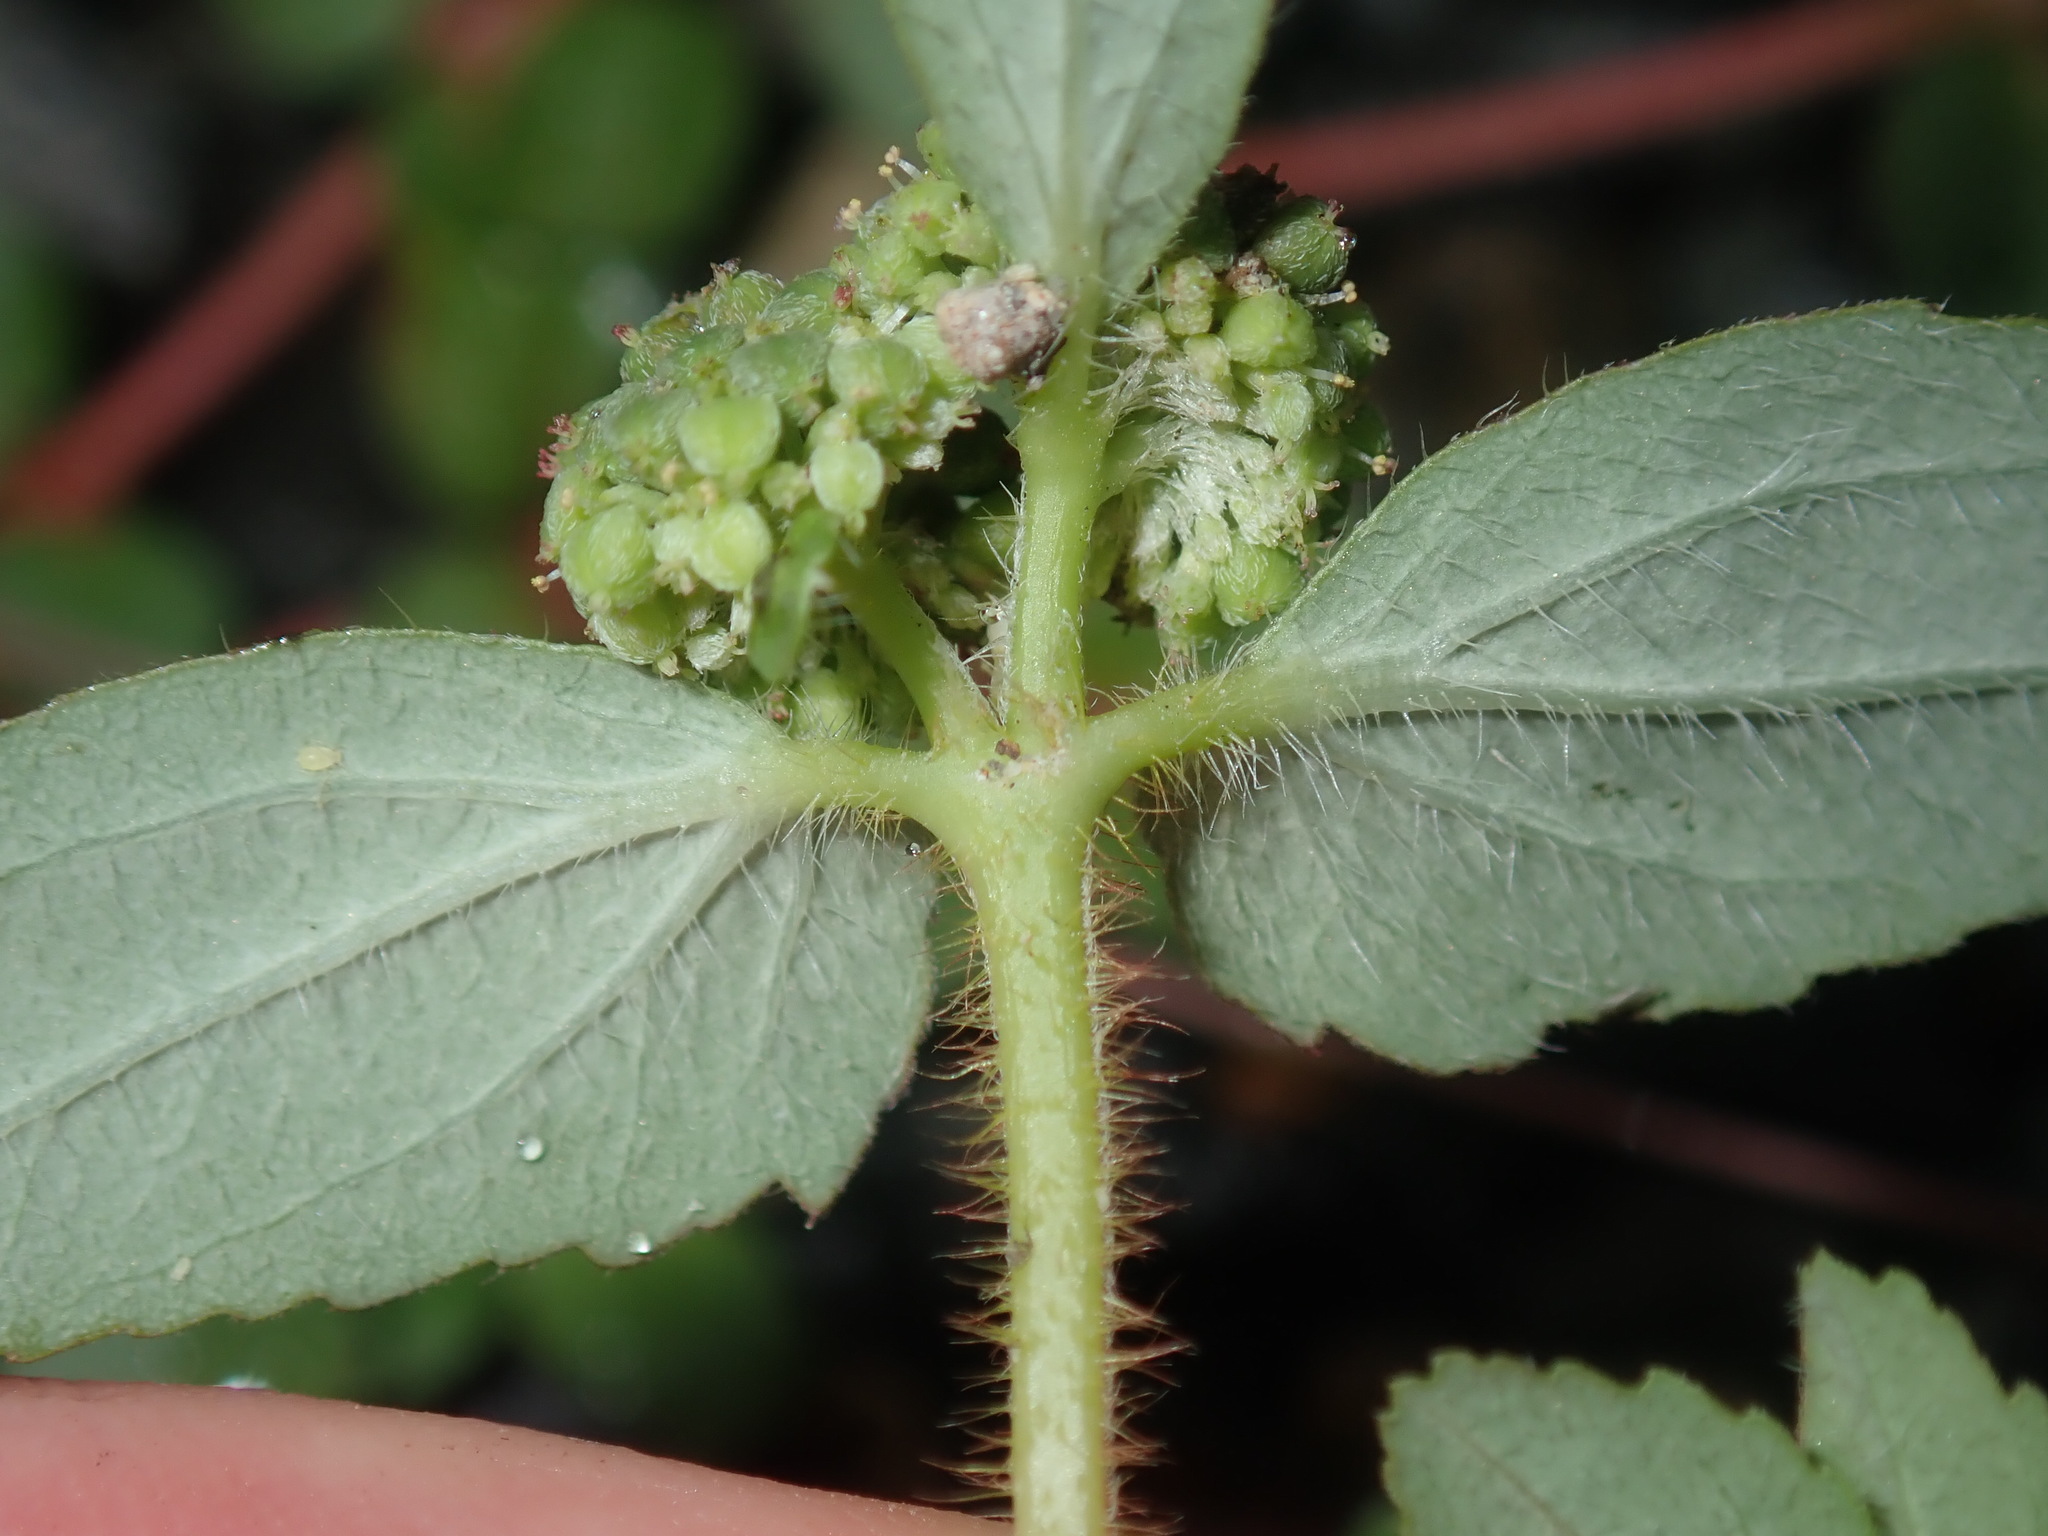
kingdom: Plantae
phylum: Tracheophyta
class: Magnoliopsida
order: Malpighiales
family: Euphorbiaceae
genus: Euphorbia
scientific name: Euphorbia ophthalmica
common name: Florida hammock sandmat
